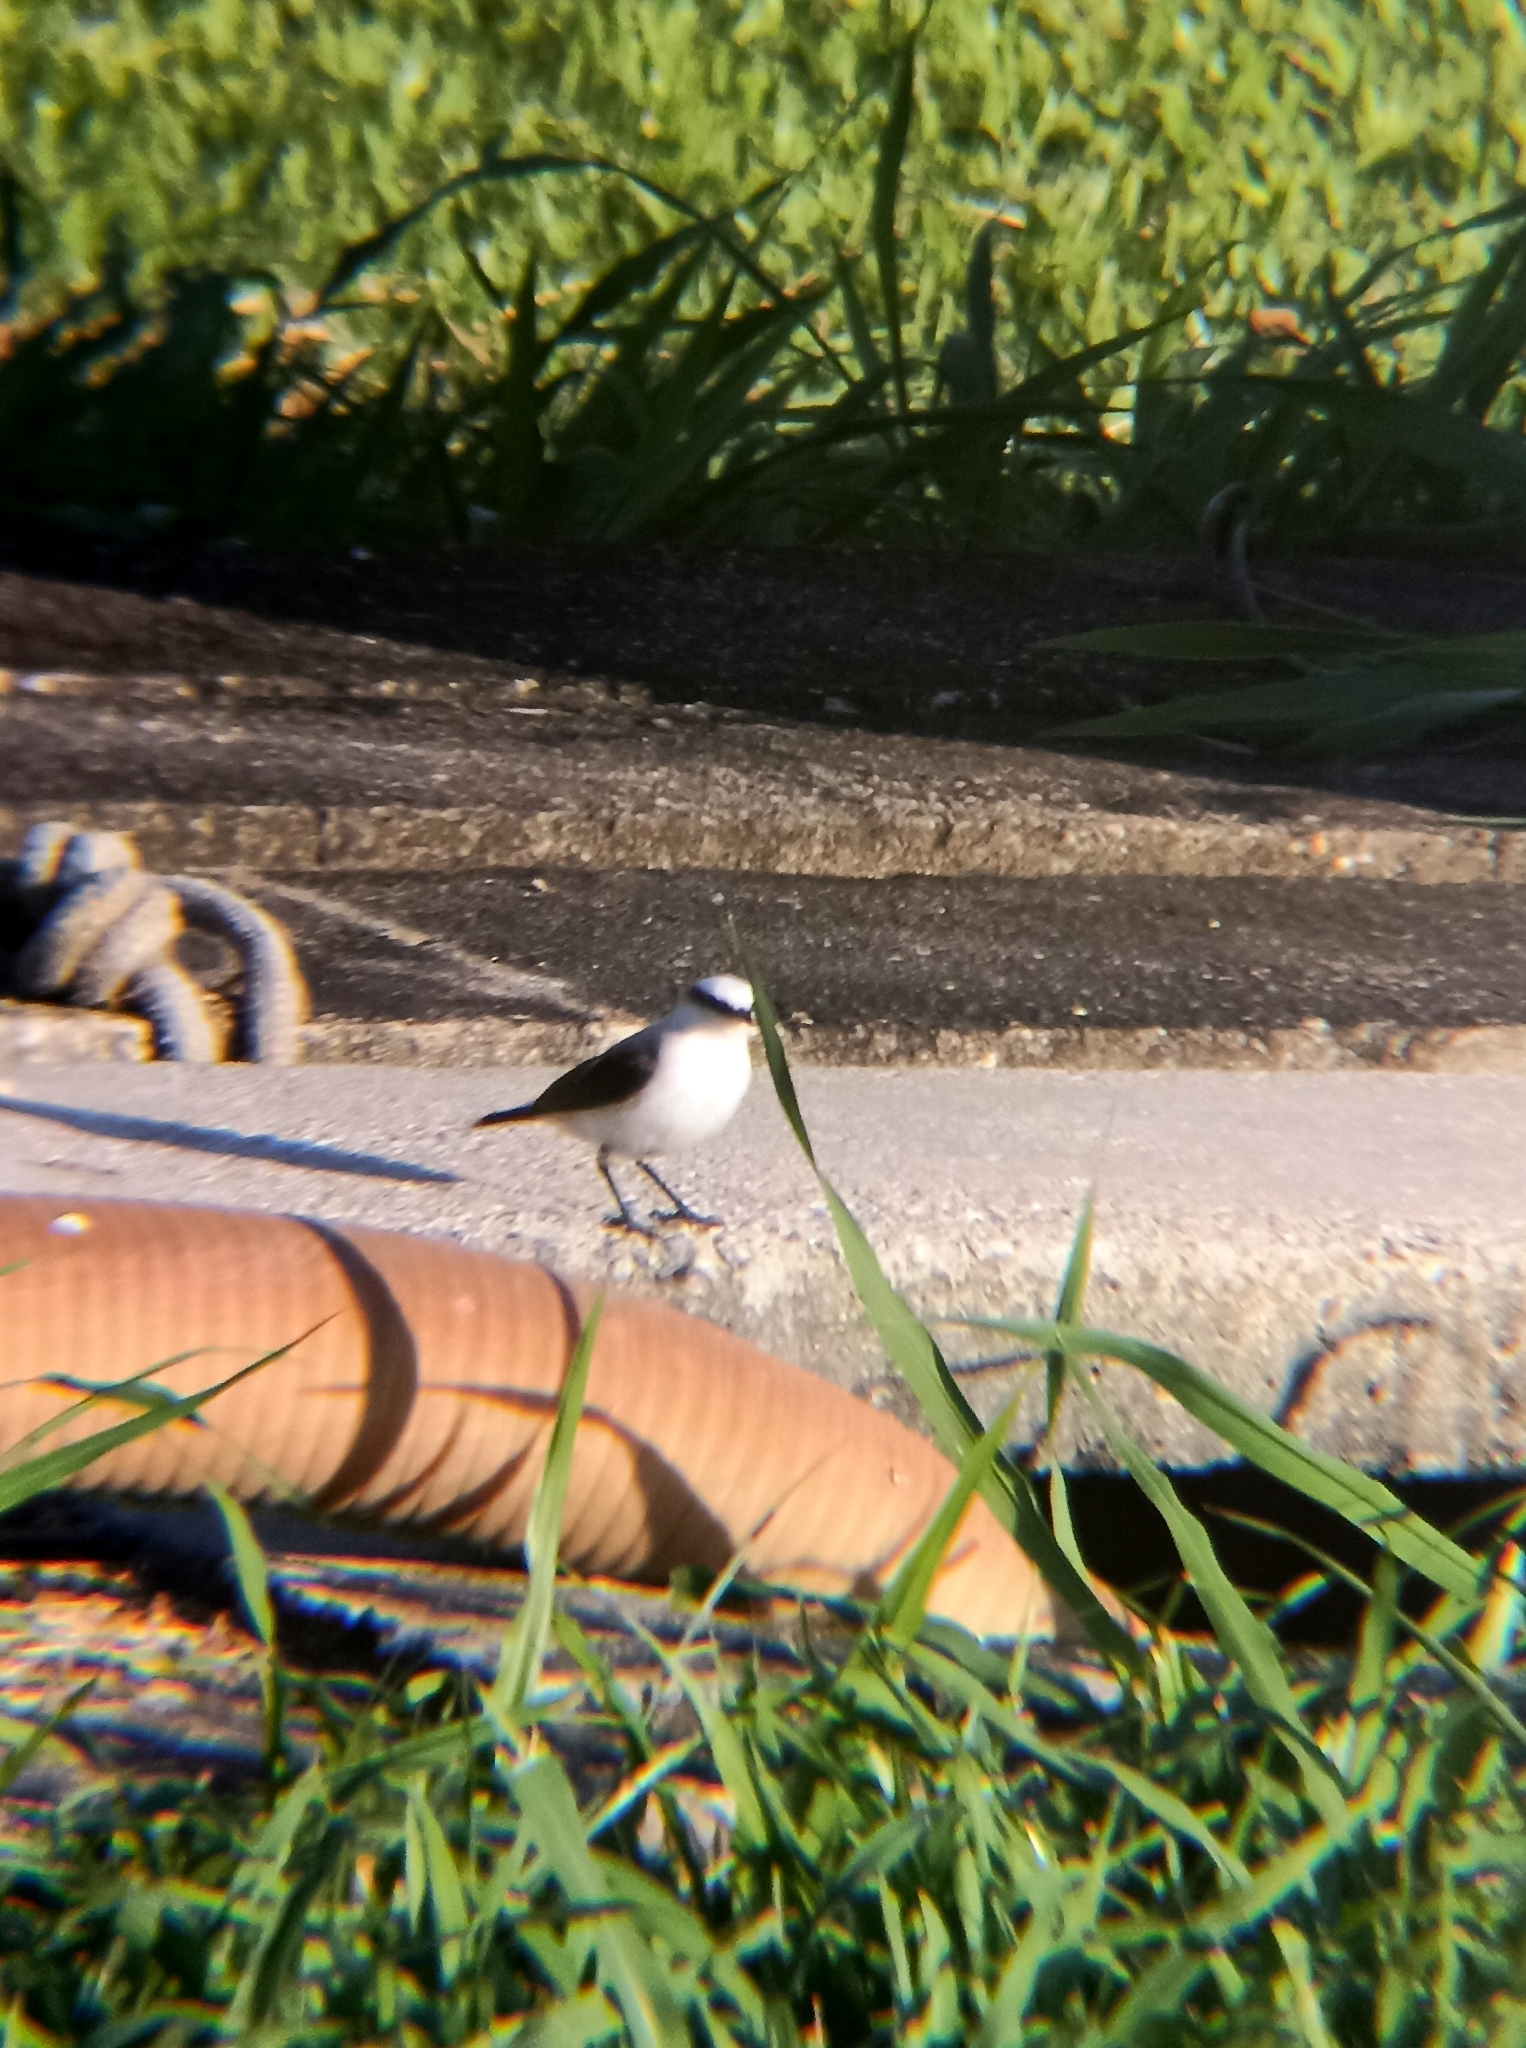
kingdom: Animalia
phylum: Chordata
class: Aves
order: Passeriformes
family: Tyrannidae
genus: Fluvicola
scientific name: Fluvicola nengeta
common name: Masked water tyrant
